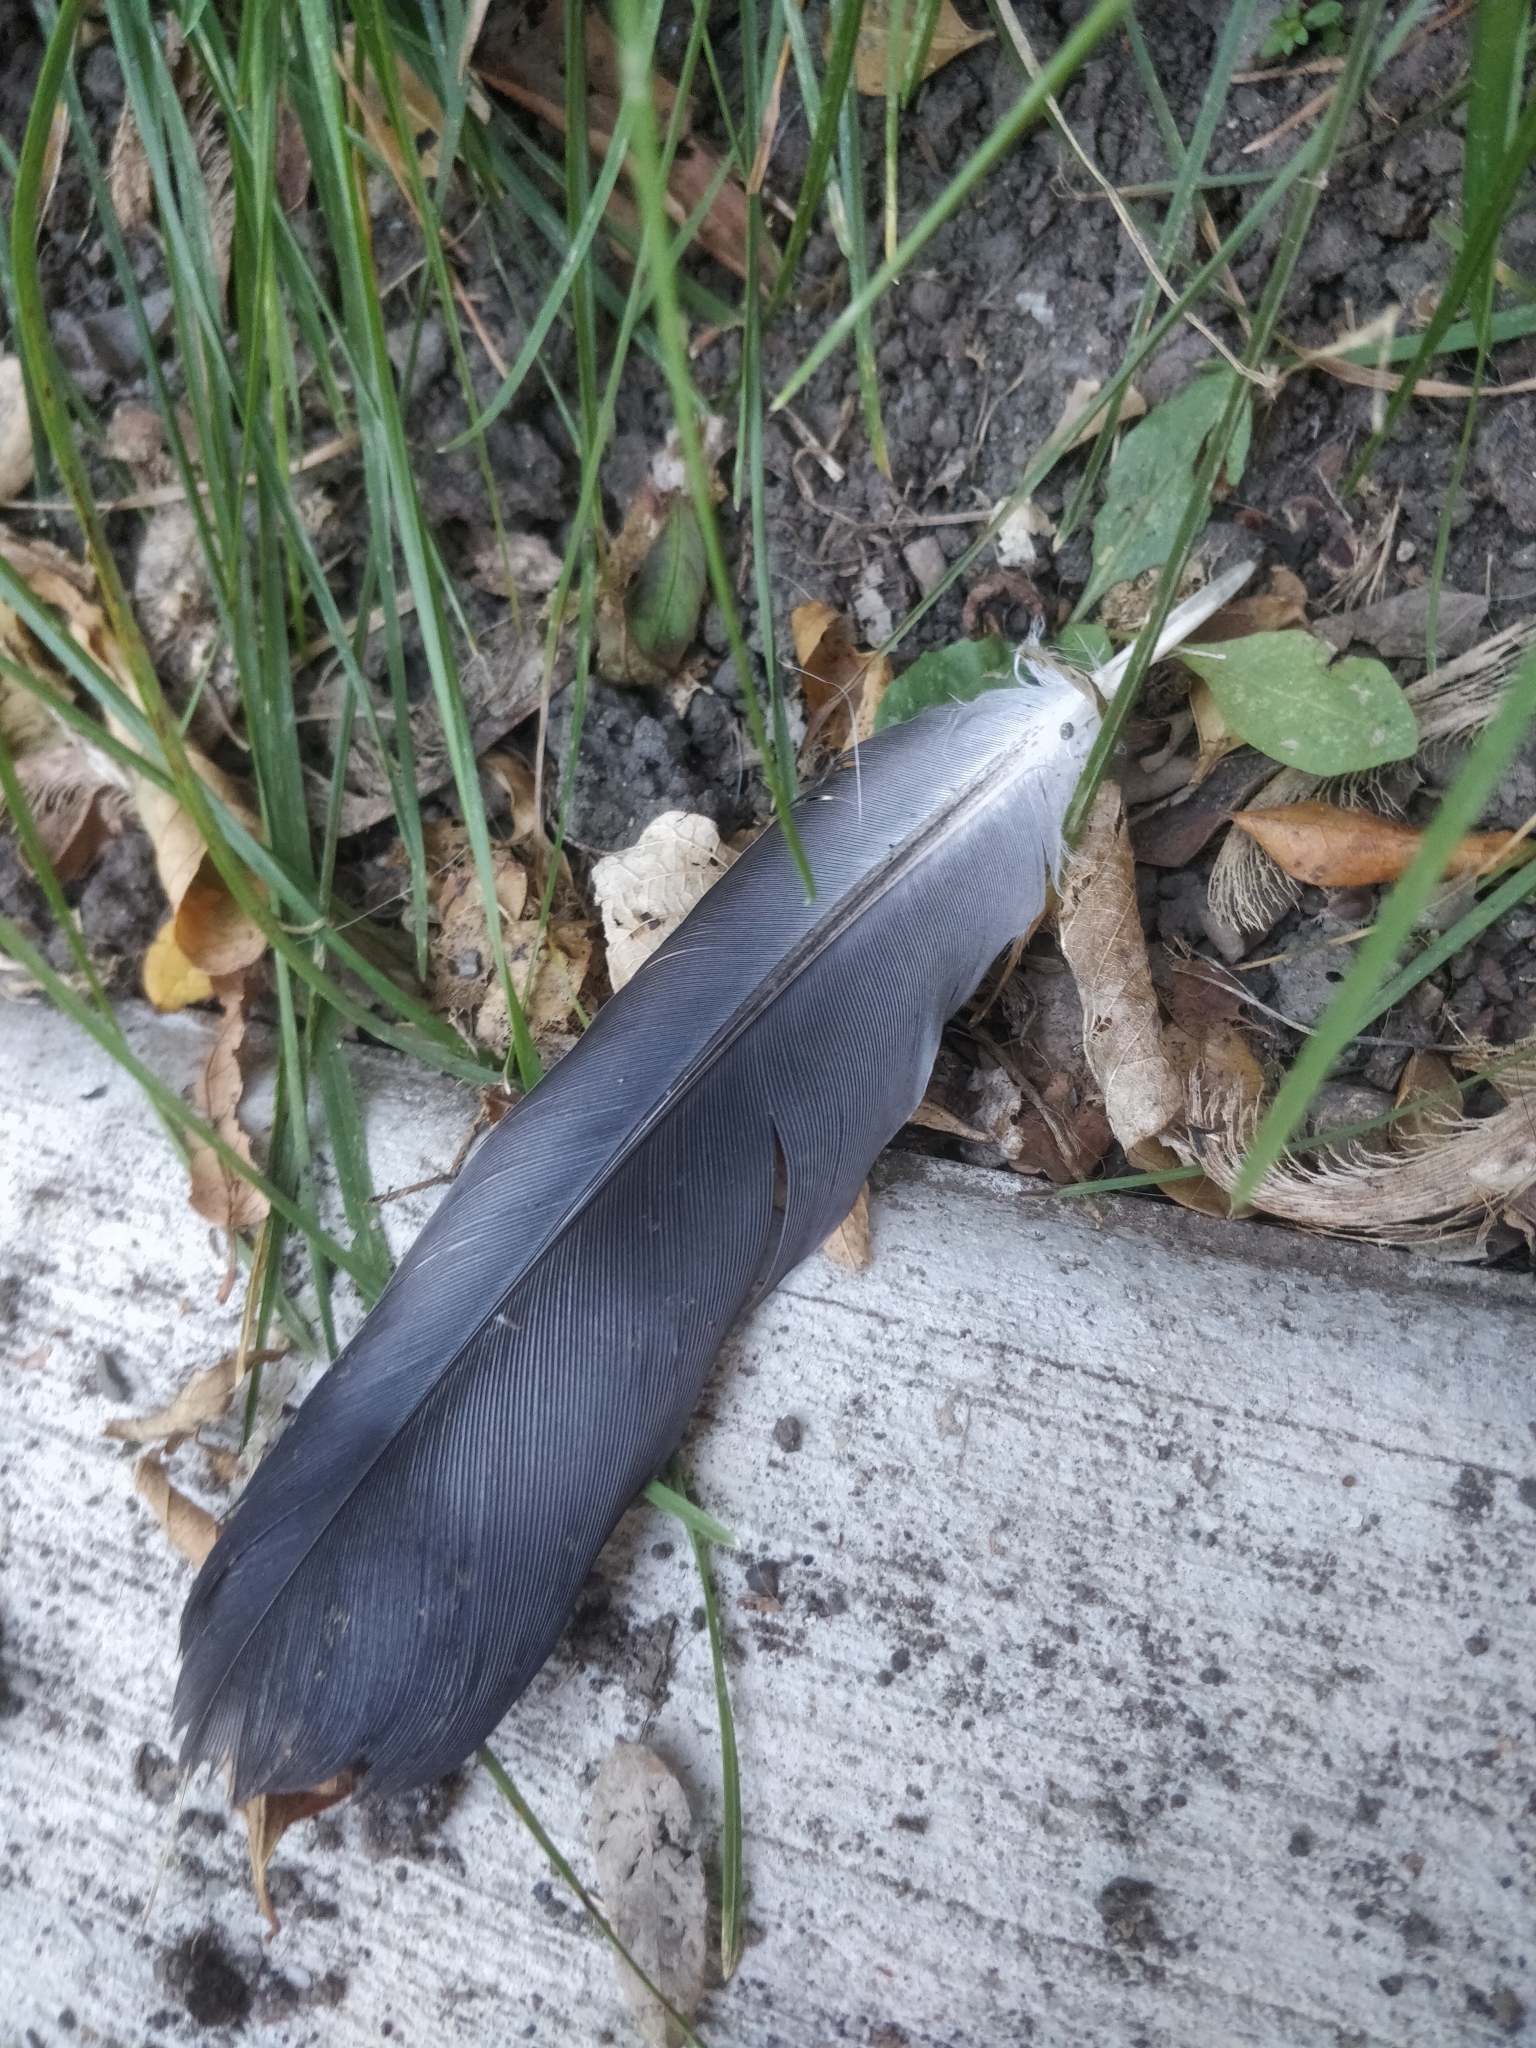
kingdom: Animalia
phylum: Chordata
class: Aves
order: Columbiformes
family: Columbidae
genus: Columba
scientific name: Columba livia
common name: Rock pigeon
